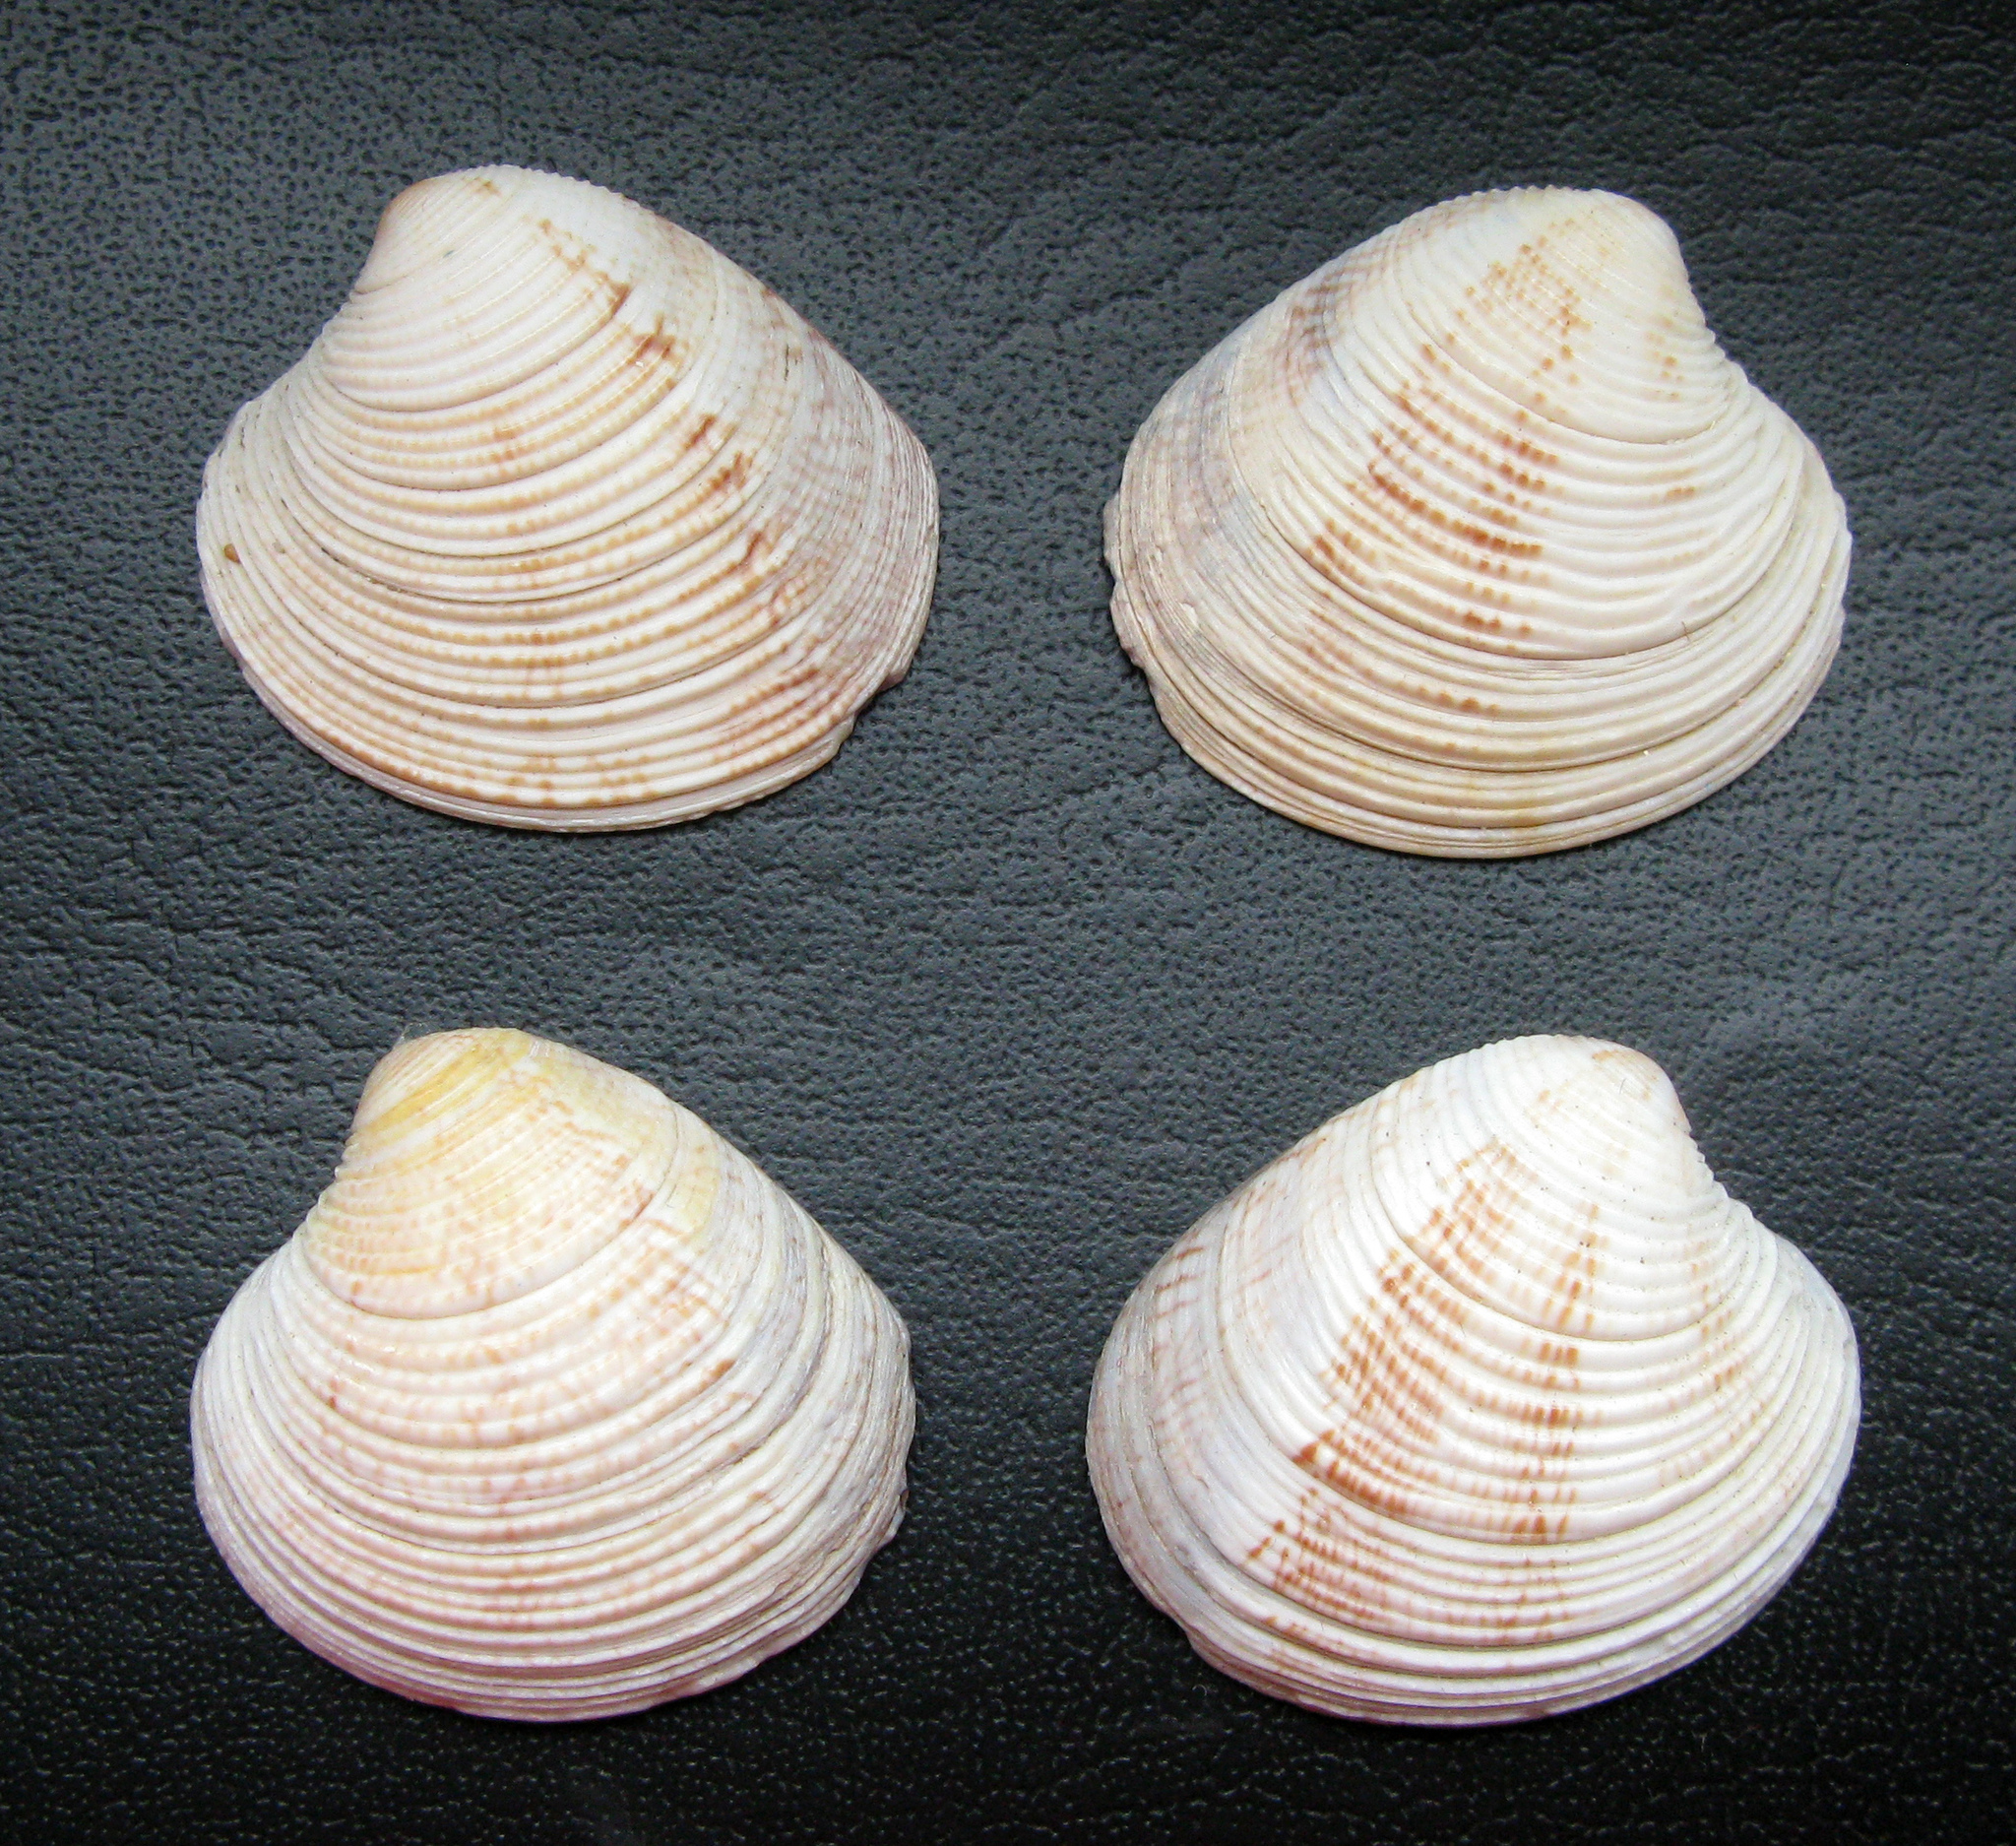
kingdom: Animalia
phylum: Mollusca
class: Bivalvia
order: Venerida
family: Veneridae
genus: Chamelea
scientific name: Chamelea gallina
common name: Chicken venus
